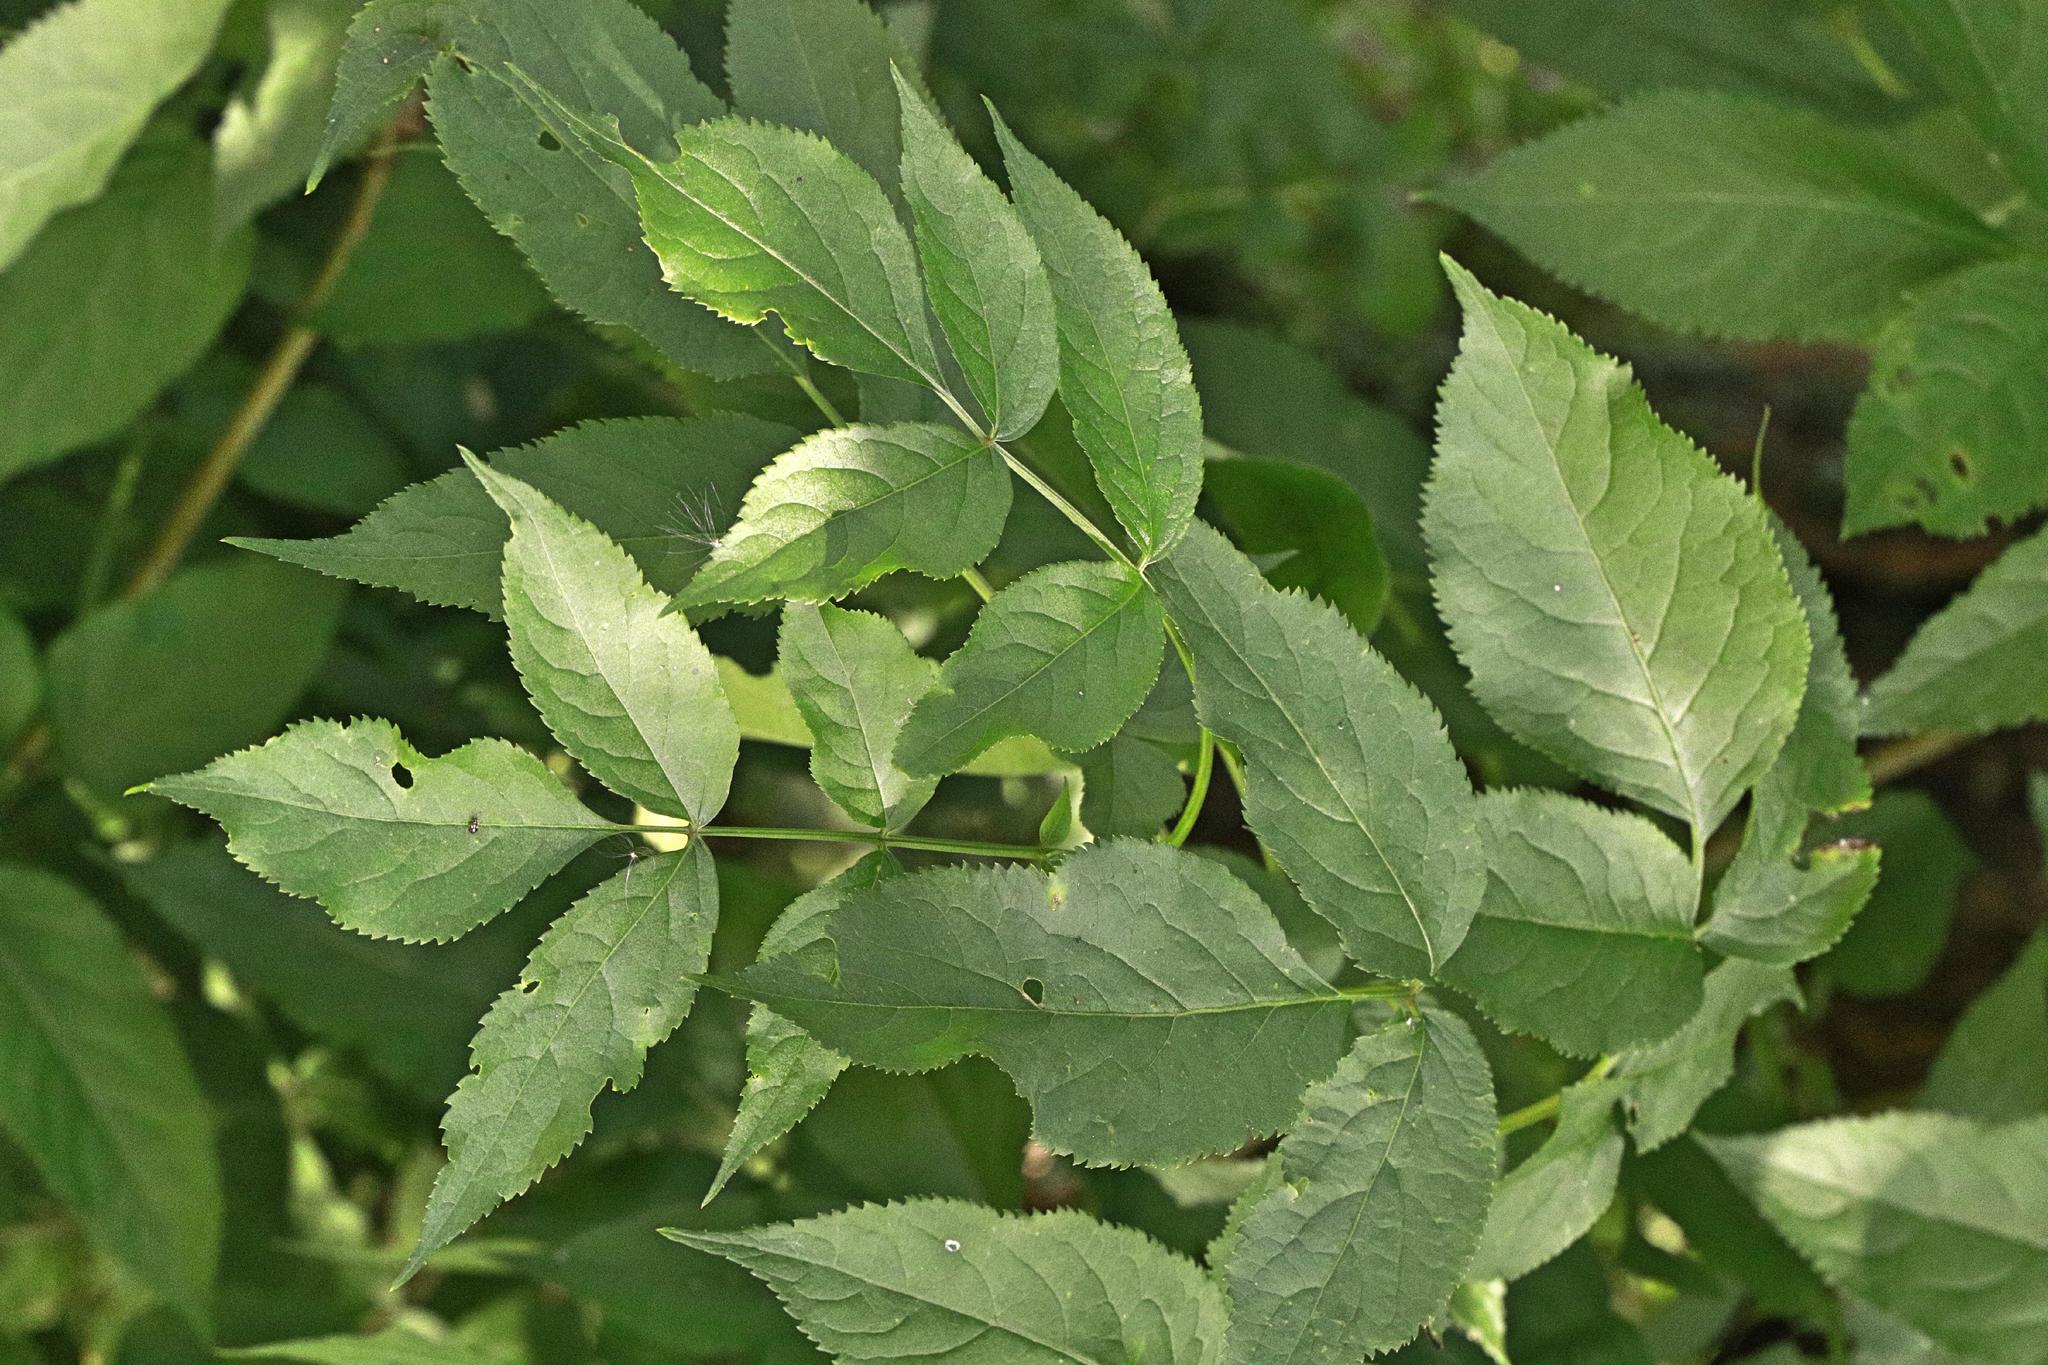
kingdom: Plantae
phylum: Tracheophyta
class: Magnoliopsida
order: Dipsacales
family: Viburnaceae
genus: Sambucus
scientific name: Sambucus nigra
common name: Elder
